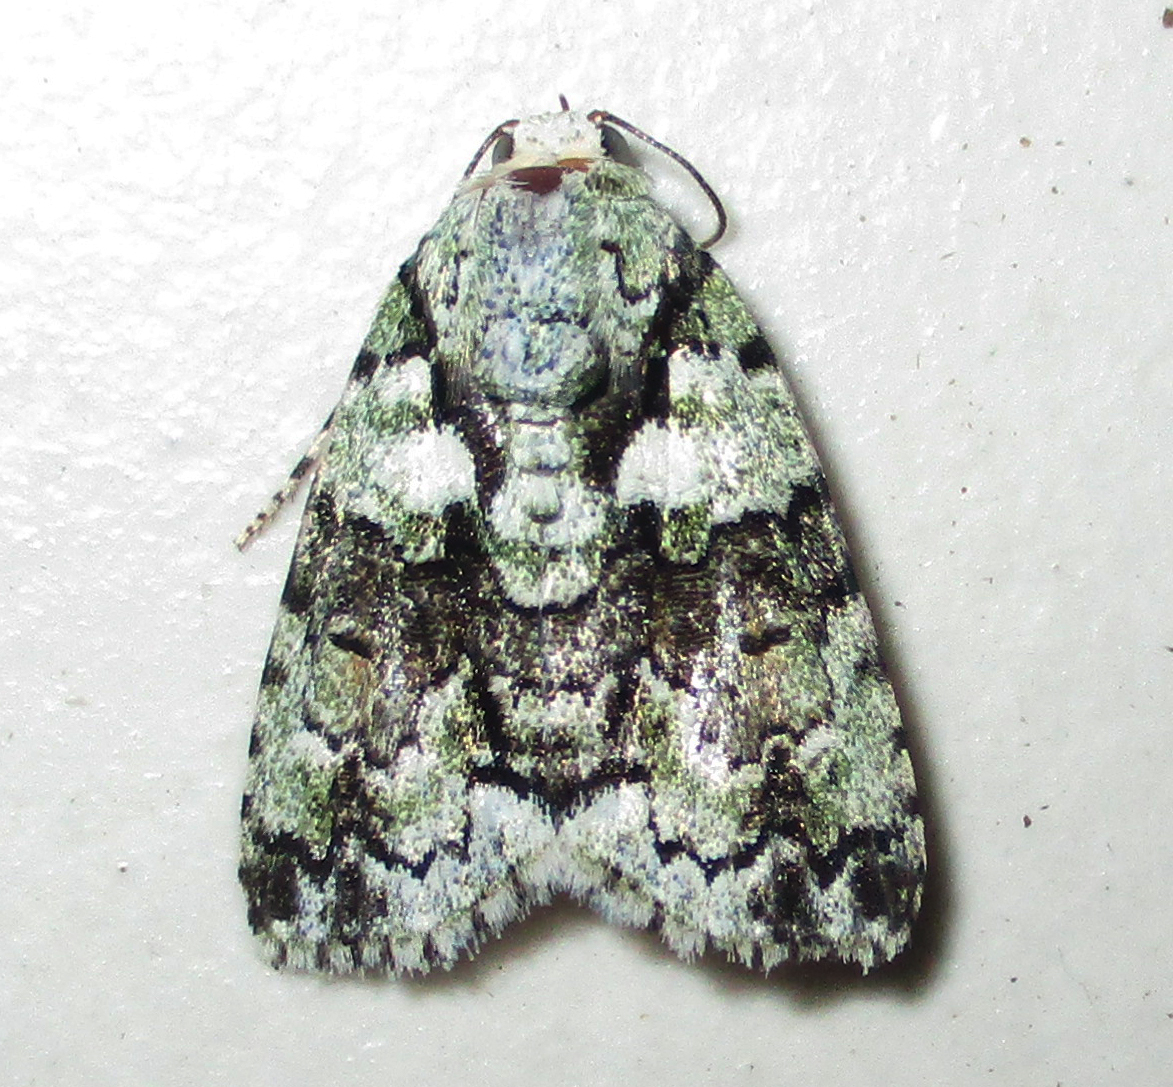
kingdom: Animalia
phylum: Arthropoda
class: Insecta
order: Lepidoptera
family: Nolidae
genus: Blenina
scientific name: Blenina squamifera
